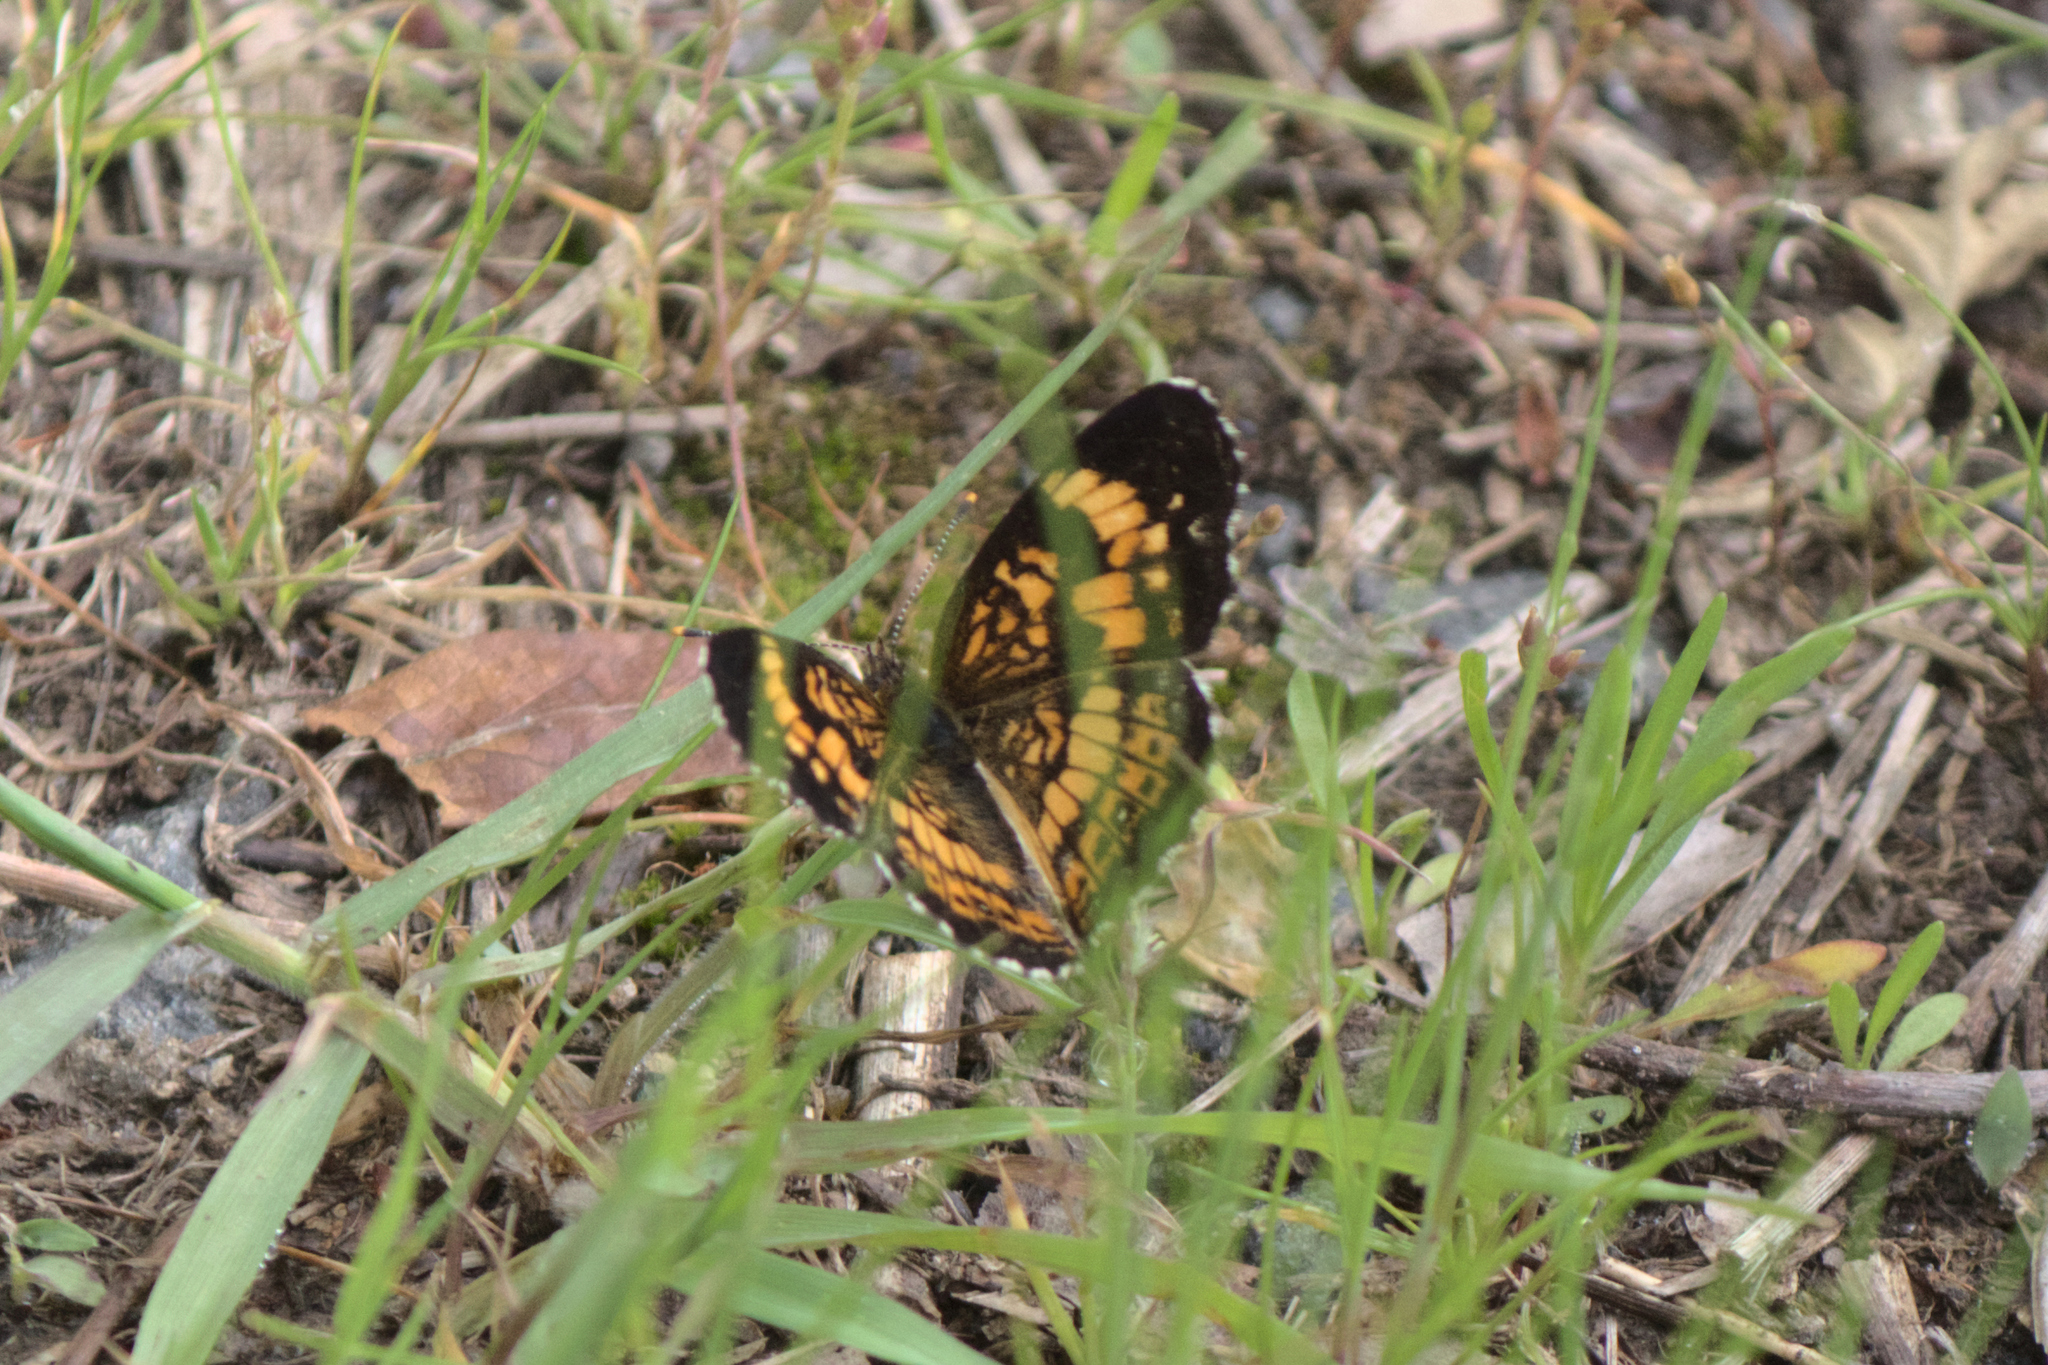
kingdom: Animalia
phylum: Arthropoda
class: Insecta
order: Lepidoptera
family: Nymphalidae
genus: Chlosyne
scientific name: Chlosyne nycteis
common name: Silvery checkerspot
